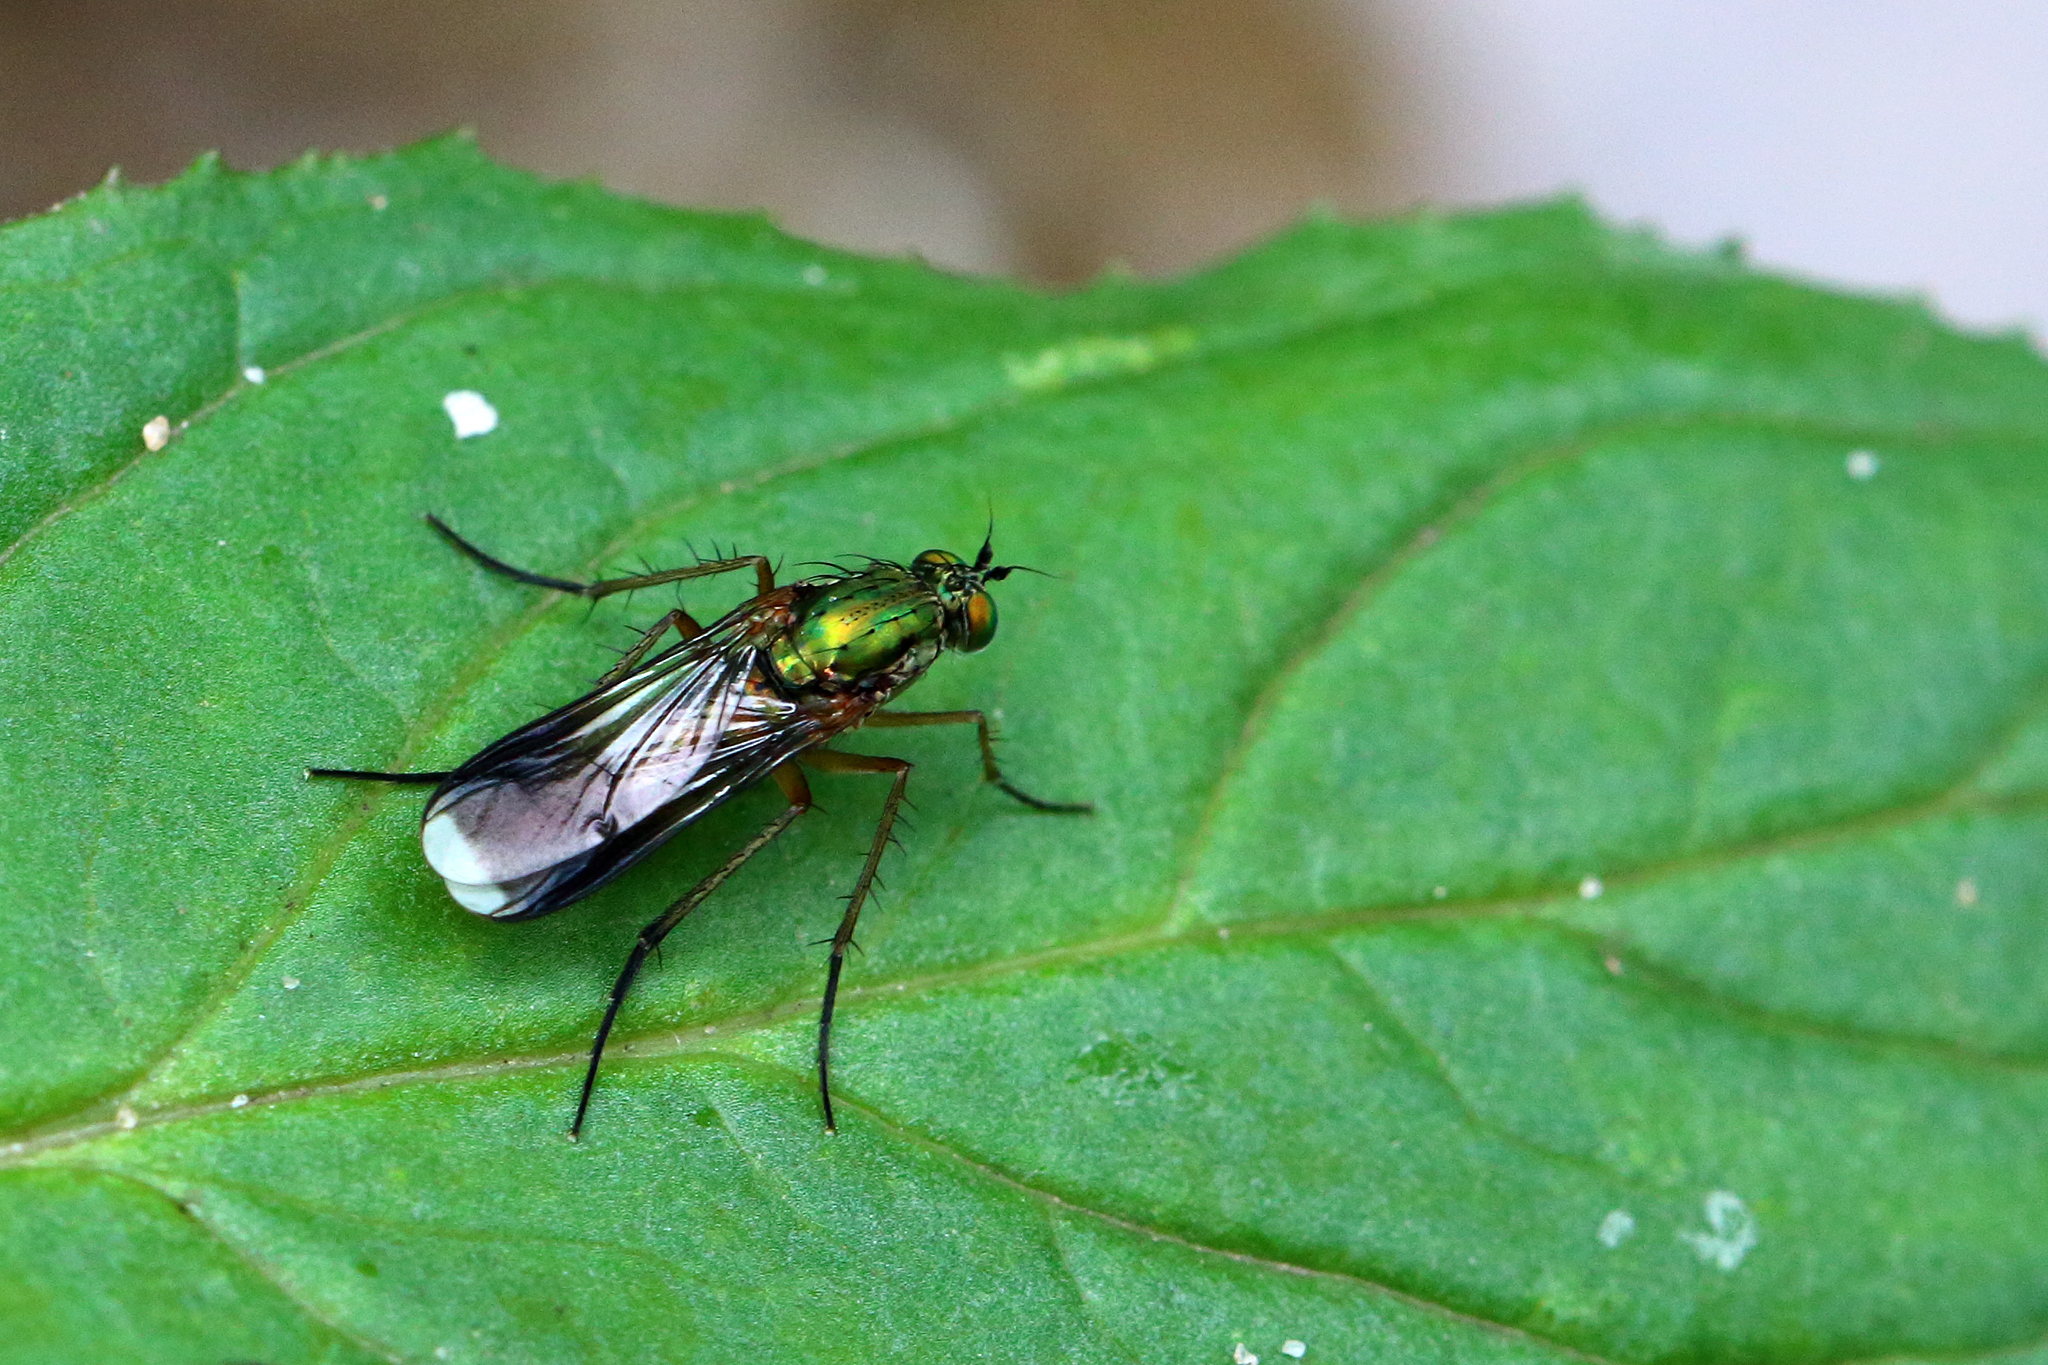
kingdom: Animalia
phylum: Arthropoda
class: Insecta
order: Diptera
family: Dolichopodidae
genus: Poecilobothrus
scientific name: Poecilobothrus nobilitatus
